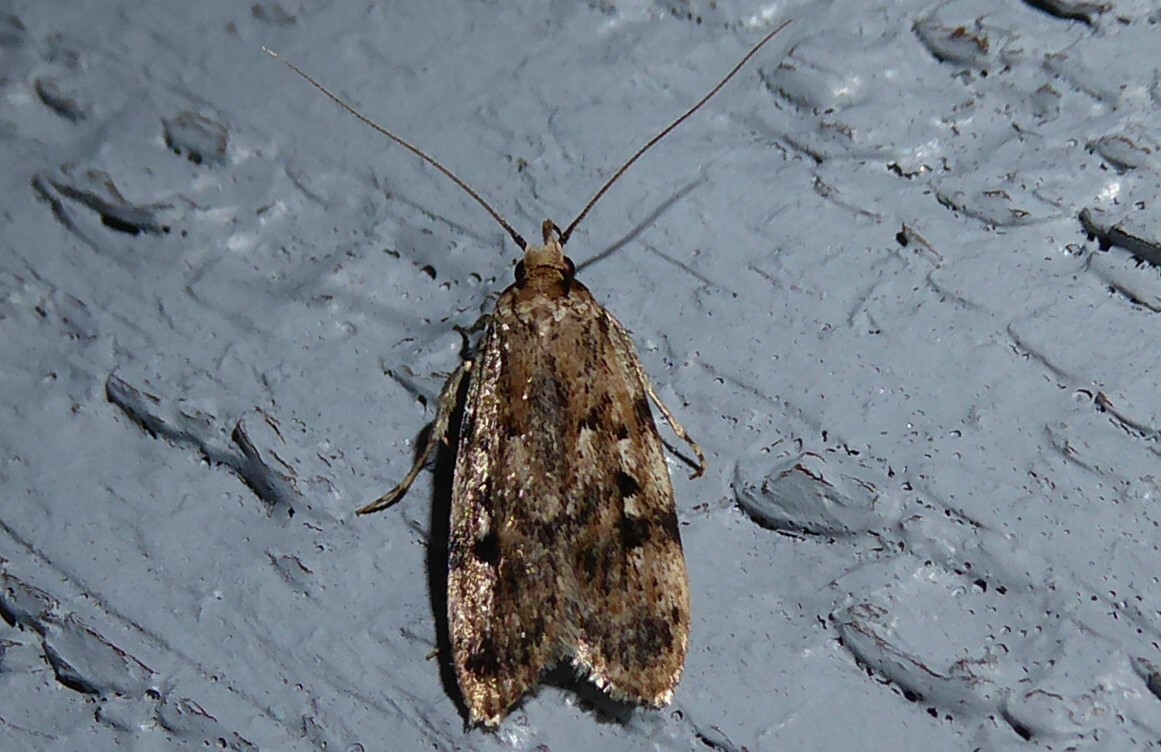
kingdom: Animalia
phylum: Arthropoda
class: Insecta
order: Lepidoptera
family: Oecophoridae
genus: Barea
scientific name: Barea exarcha
